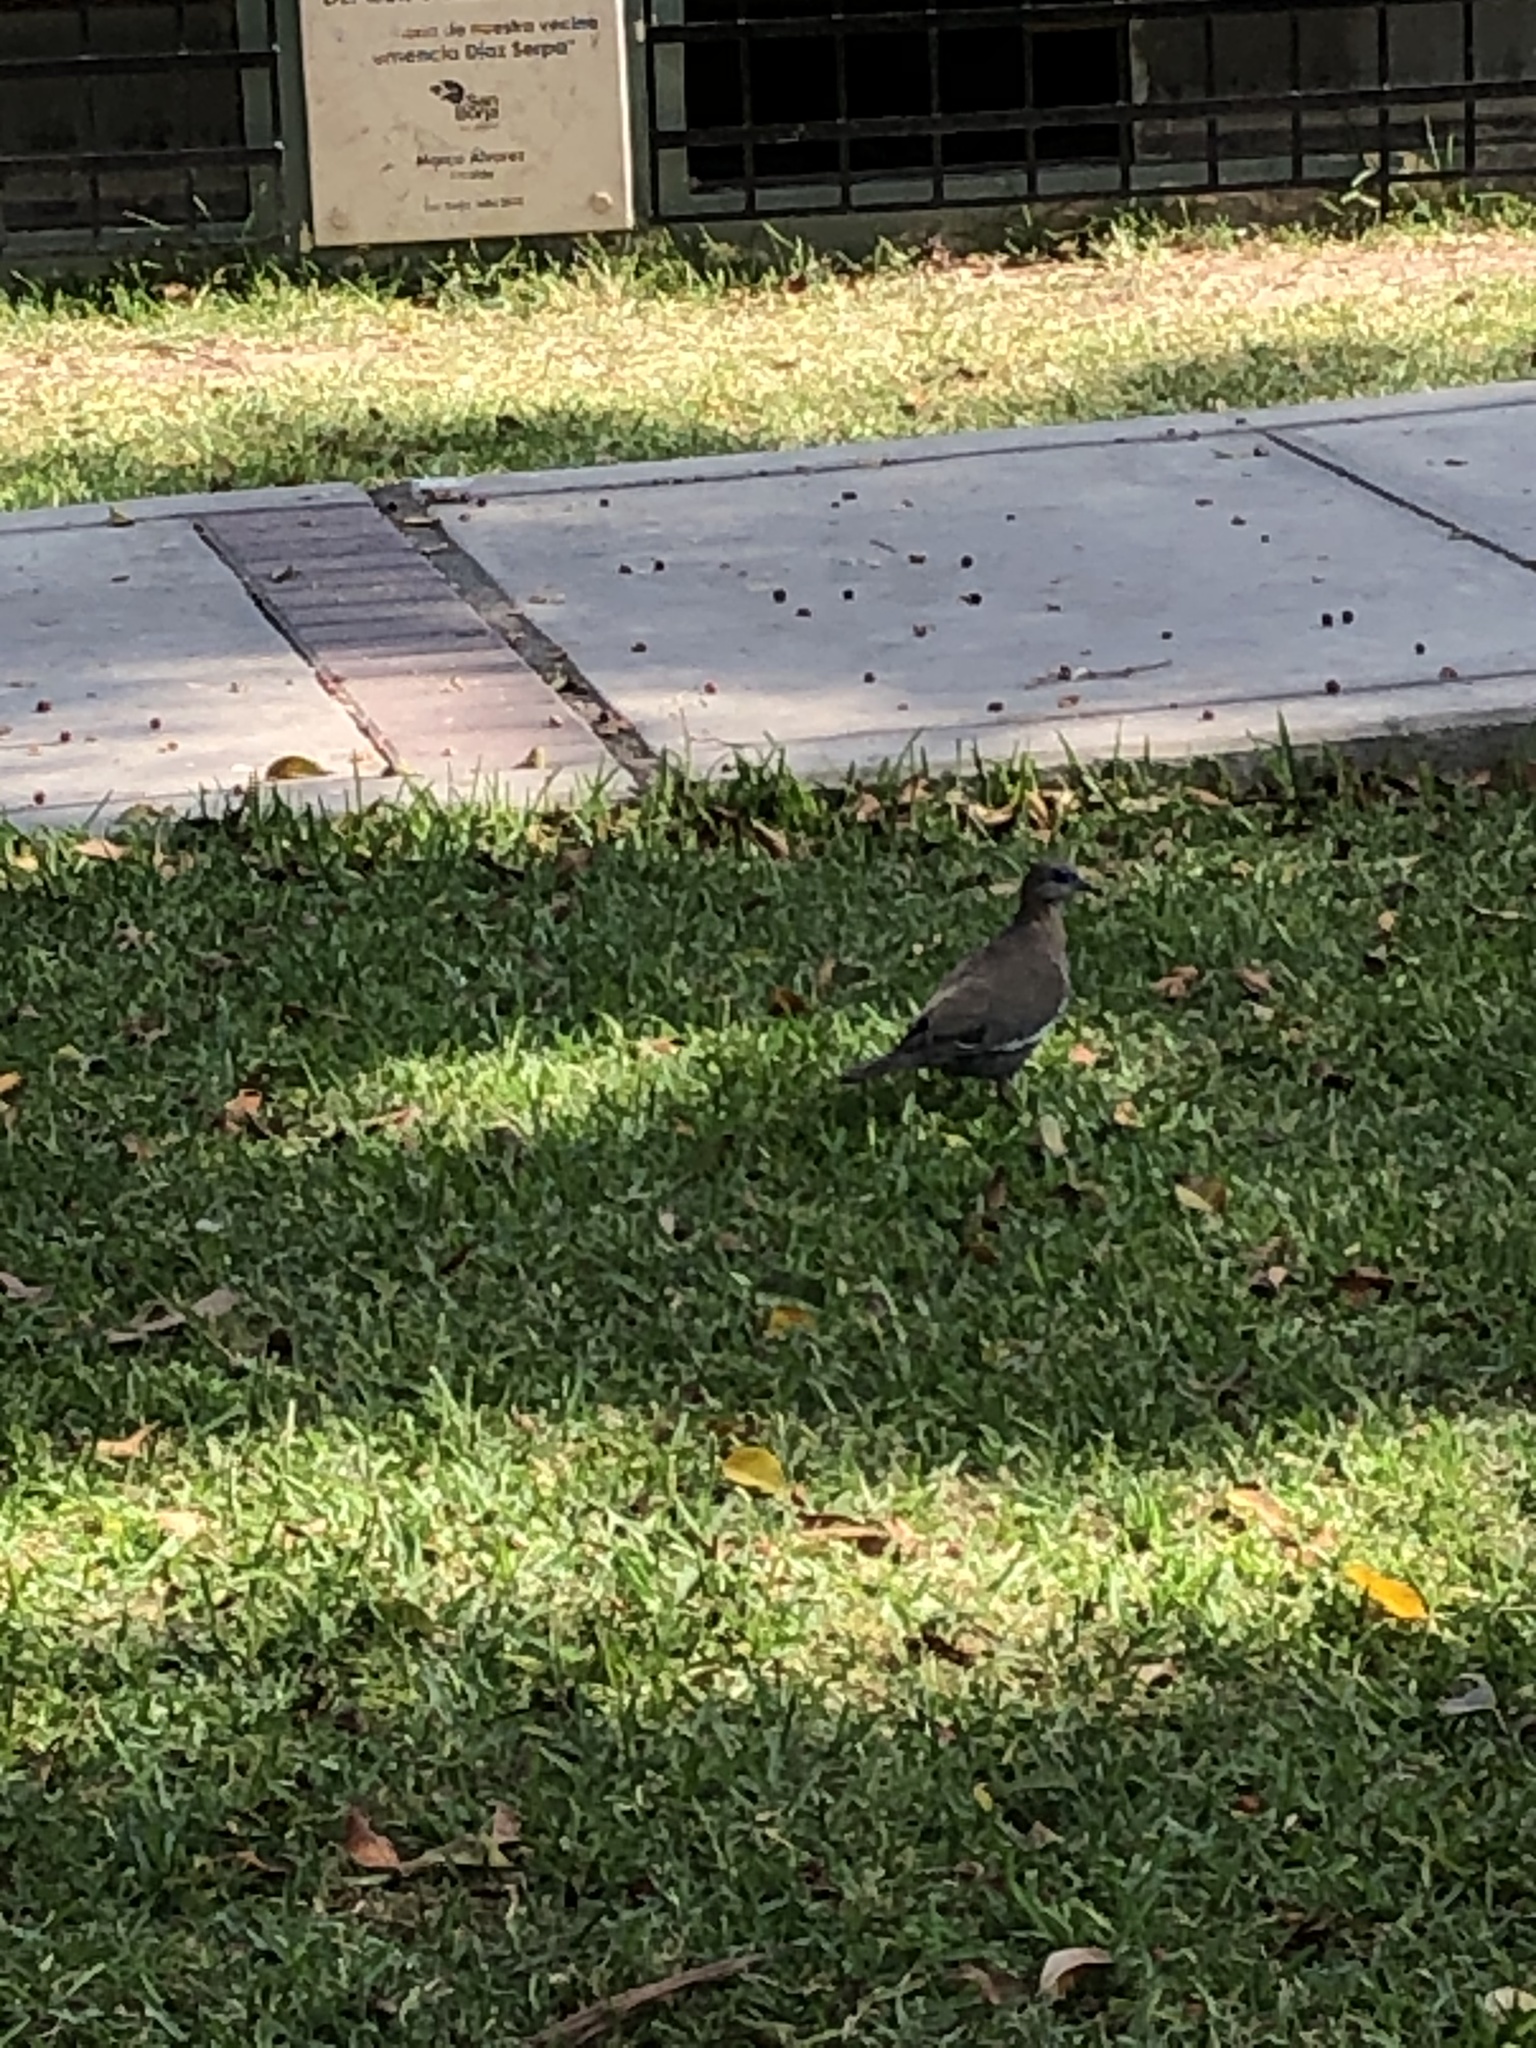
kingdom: Animalia
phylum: Chordata
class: Aves
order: Columbiformes
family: Columbidae
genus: Zenaida
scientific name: Zenaida meloda
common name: West peruvian dove
